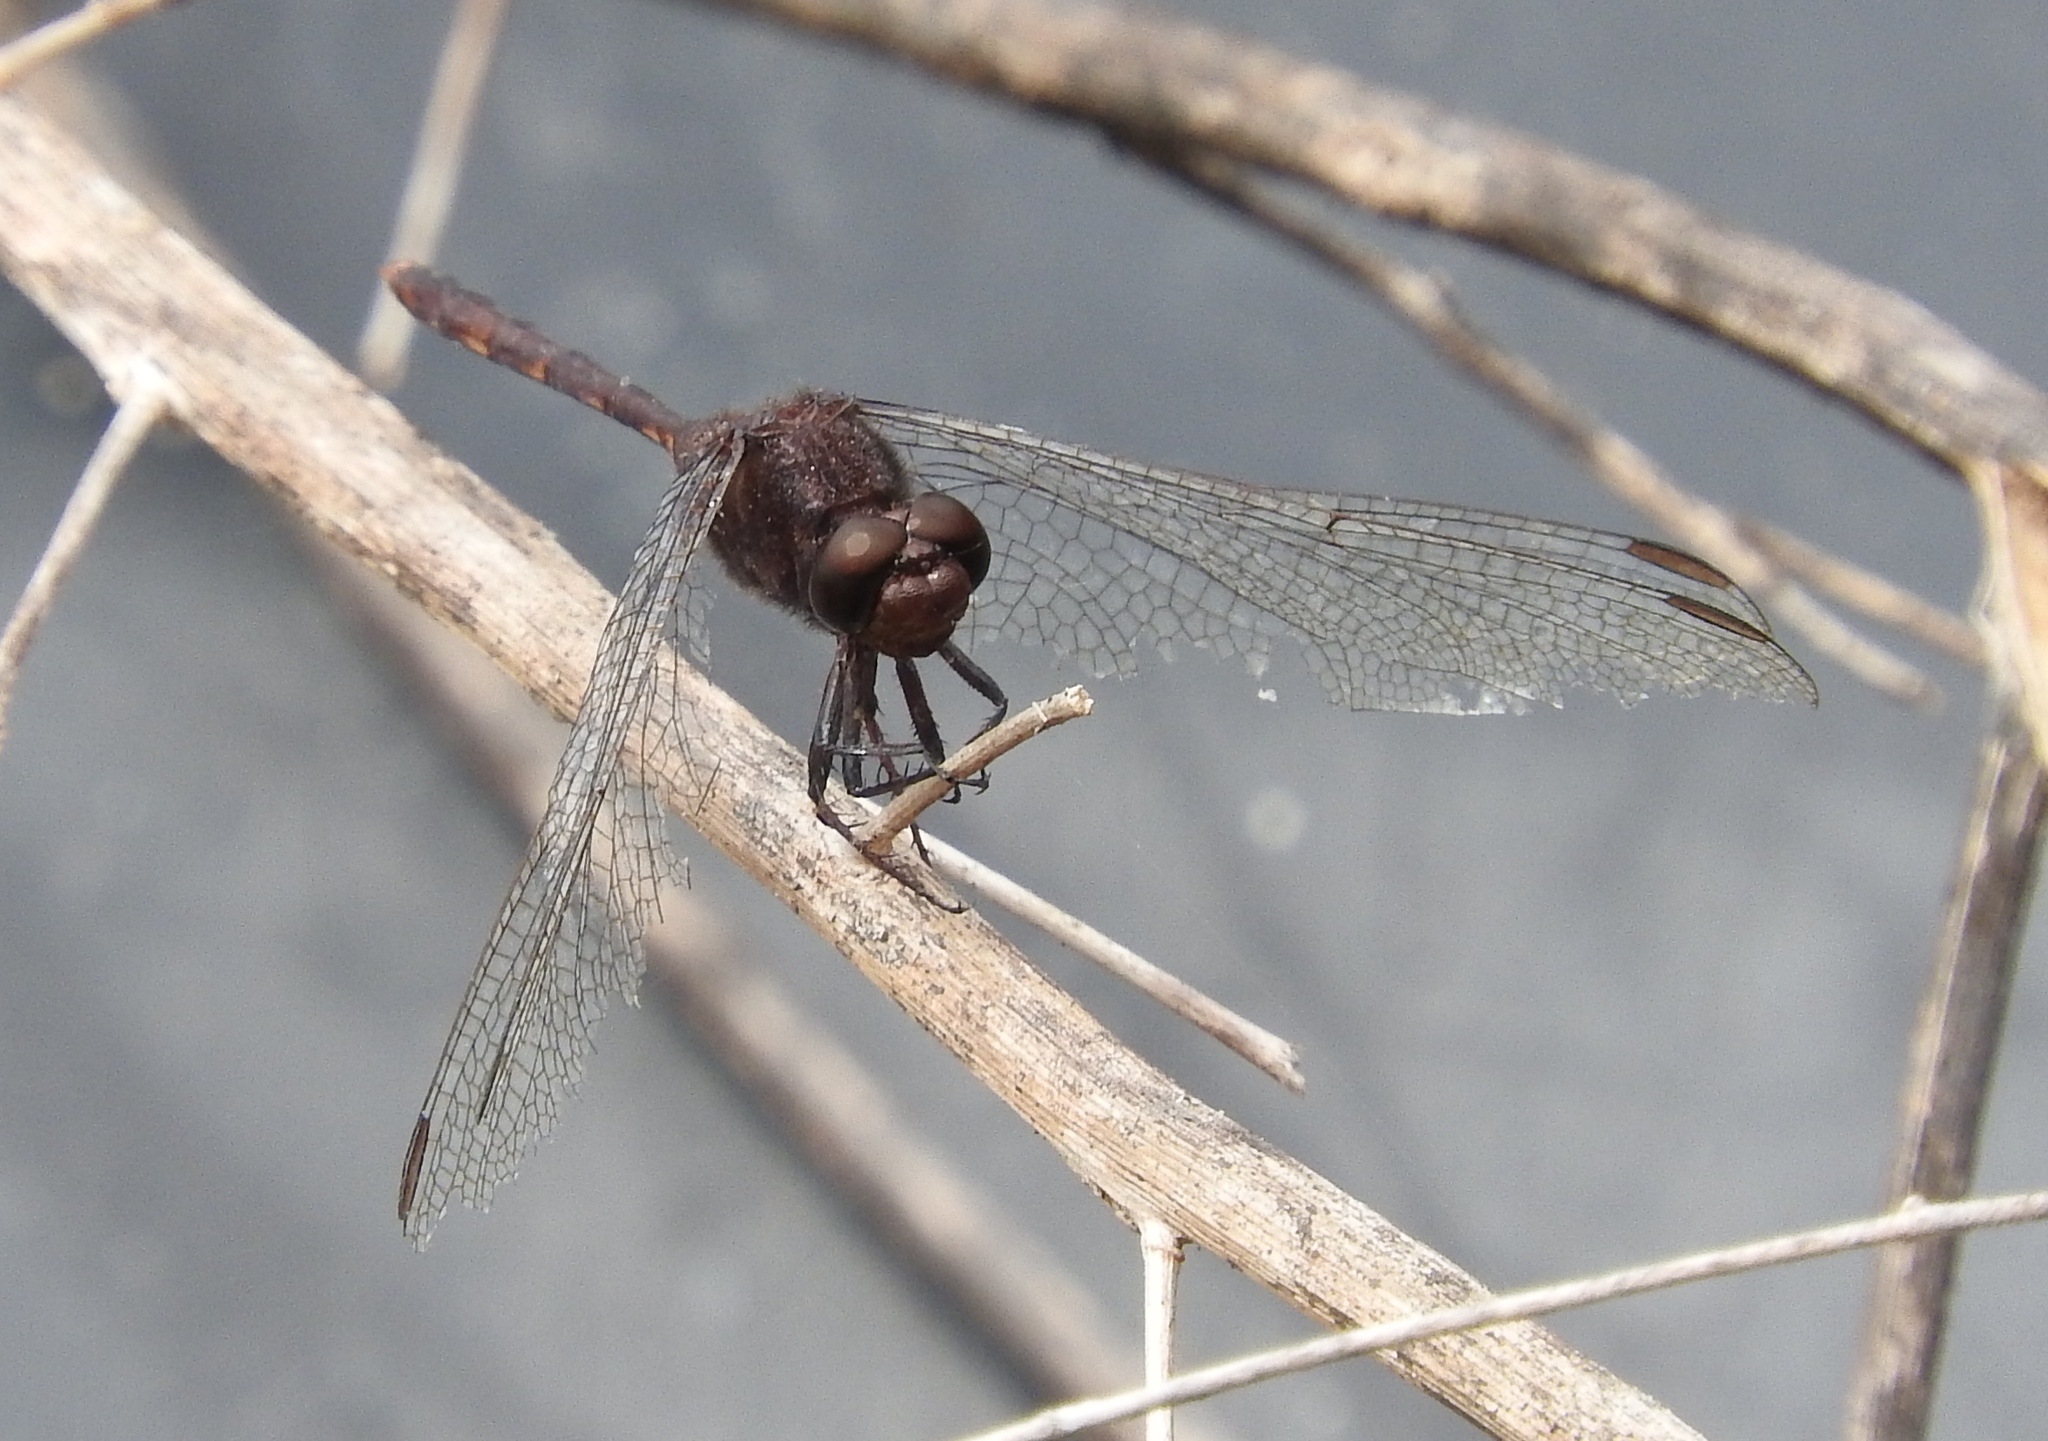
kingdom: Animalia
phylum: Arthropoda
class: Insecta
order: Odonata
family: Libellulidae
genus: Erythemis
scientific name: Erythemis plebeja
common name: Pin-tailed pondhawk
